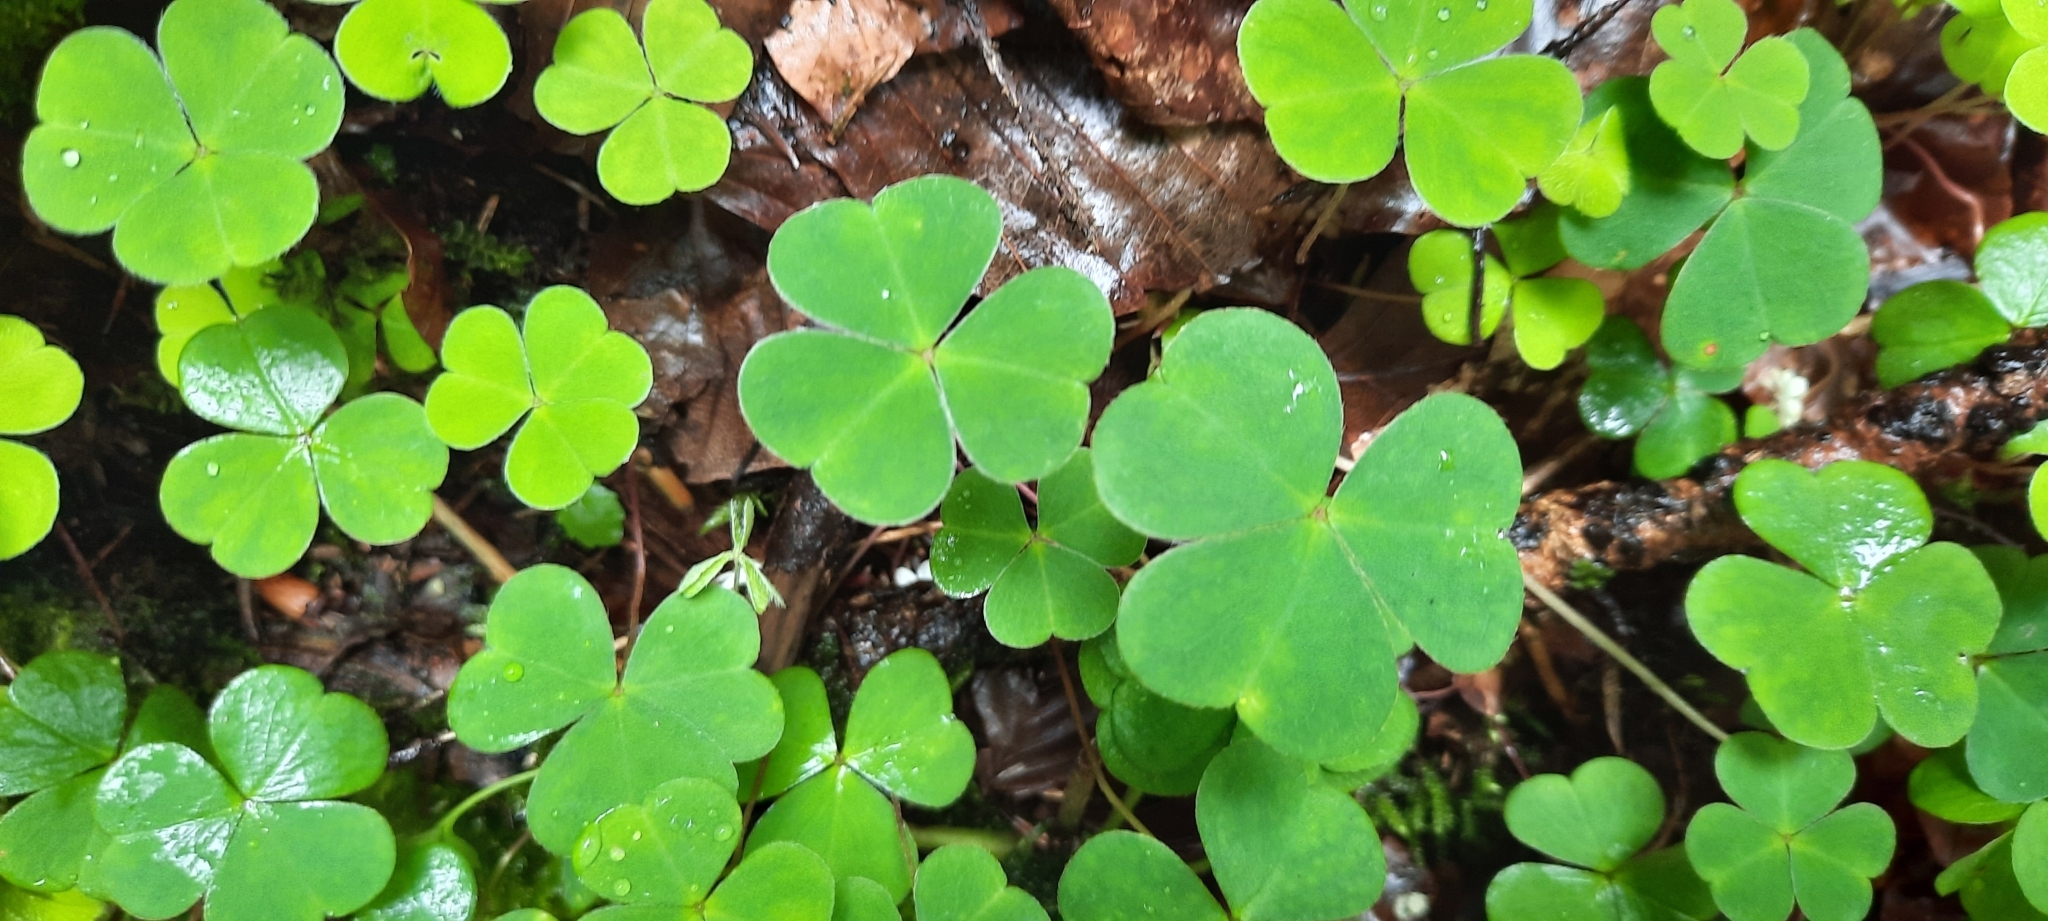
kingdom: Plantae
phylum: Tracheophyta
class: Magnoliopsida
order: Oxalidales
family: Oxalidaceae
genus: Oxalis
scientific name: Oxalis acetosella
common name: Wood-sorrel
